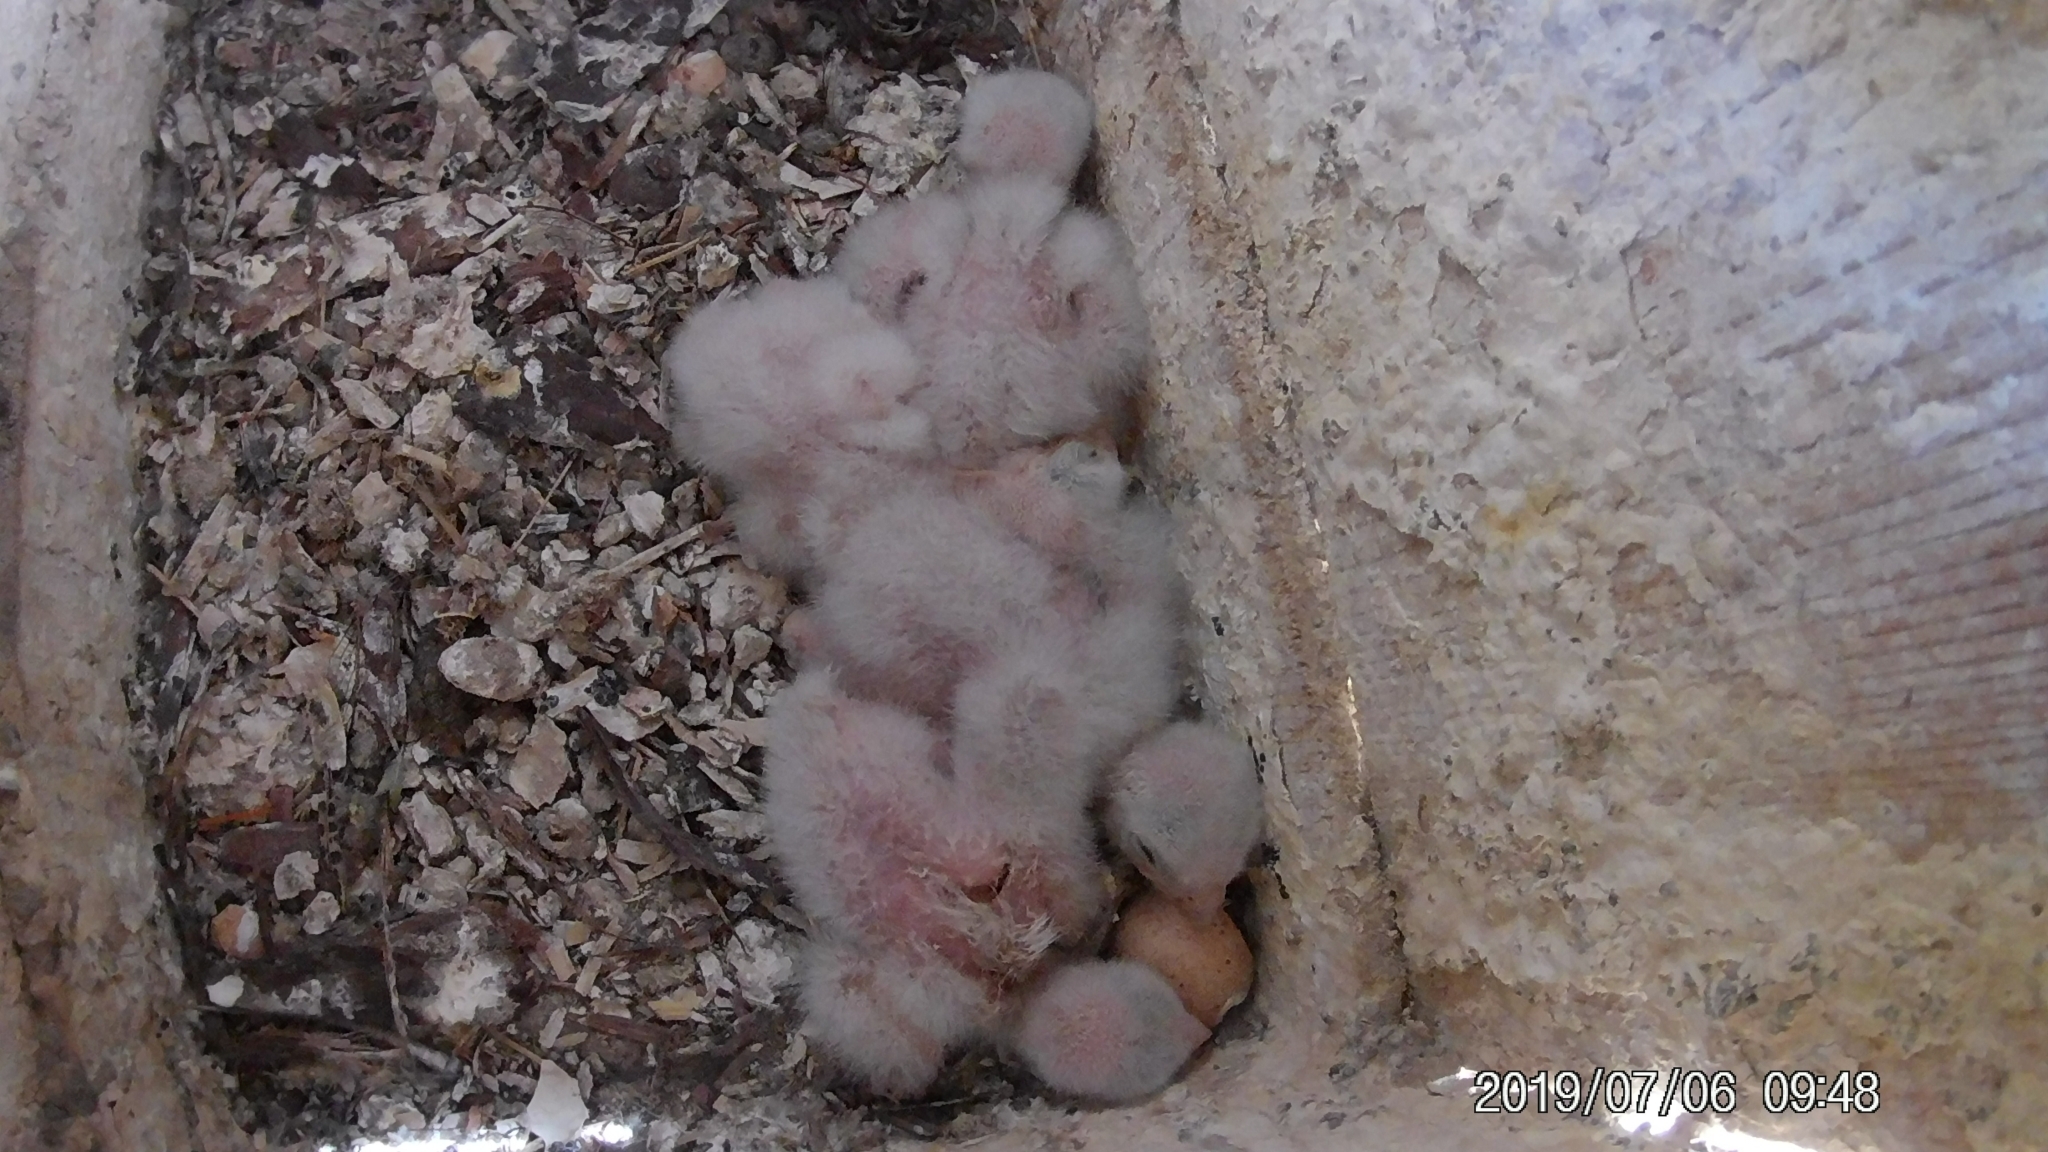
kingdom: Animalia
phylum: Chordata
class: Aves
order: Falconiformes
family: Falconidae
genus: Falco
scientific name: Falco sparverius
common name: American kestrel
